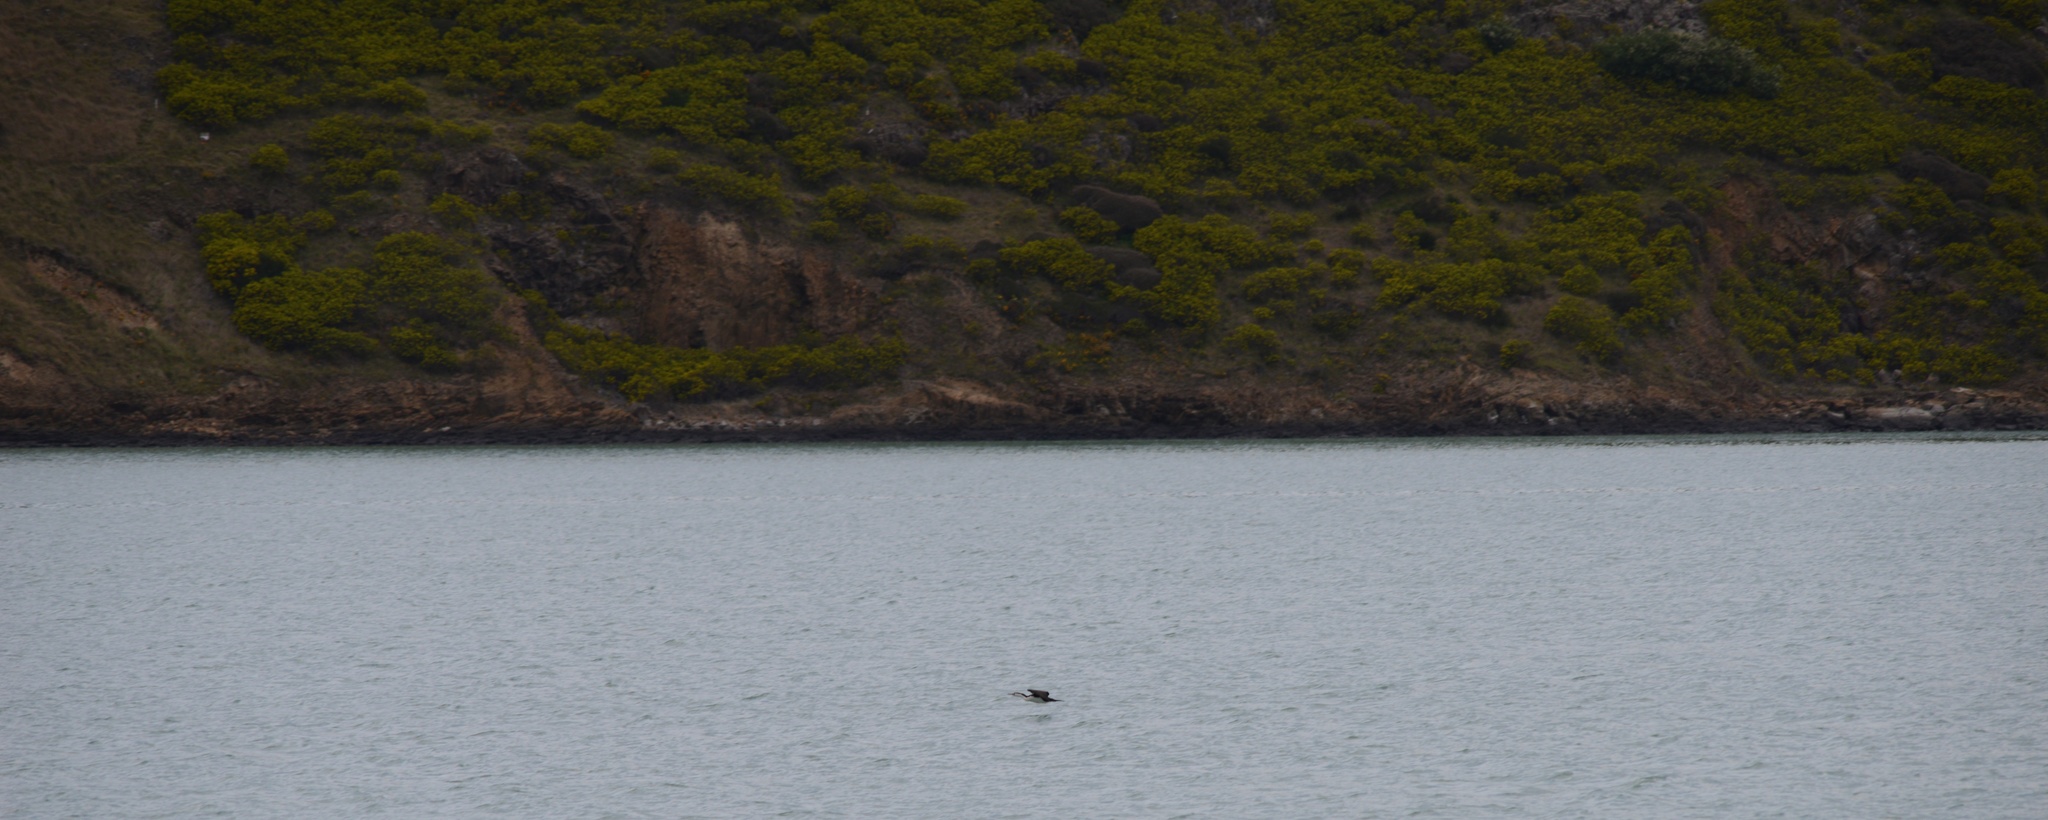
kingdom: Animalia
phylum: Chordata
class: Aves
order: Suliformes
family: Phalacrocoracidae
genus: Phalacrocorax
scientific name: Phalacrocorax varius
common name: Pied cormorant
